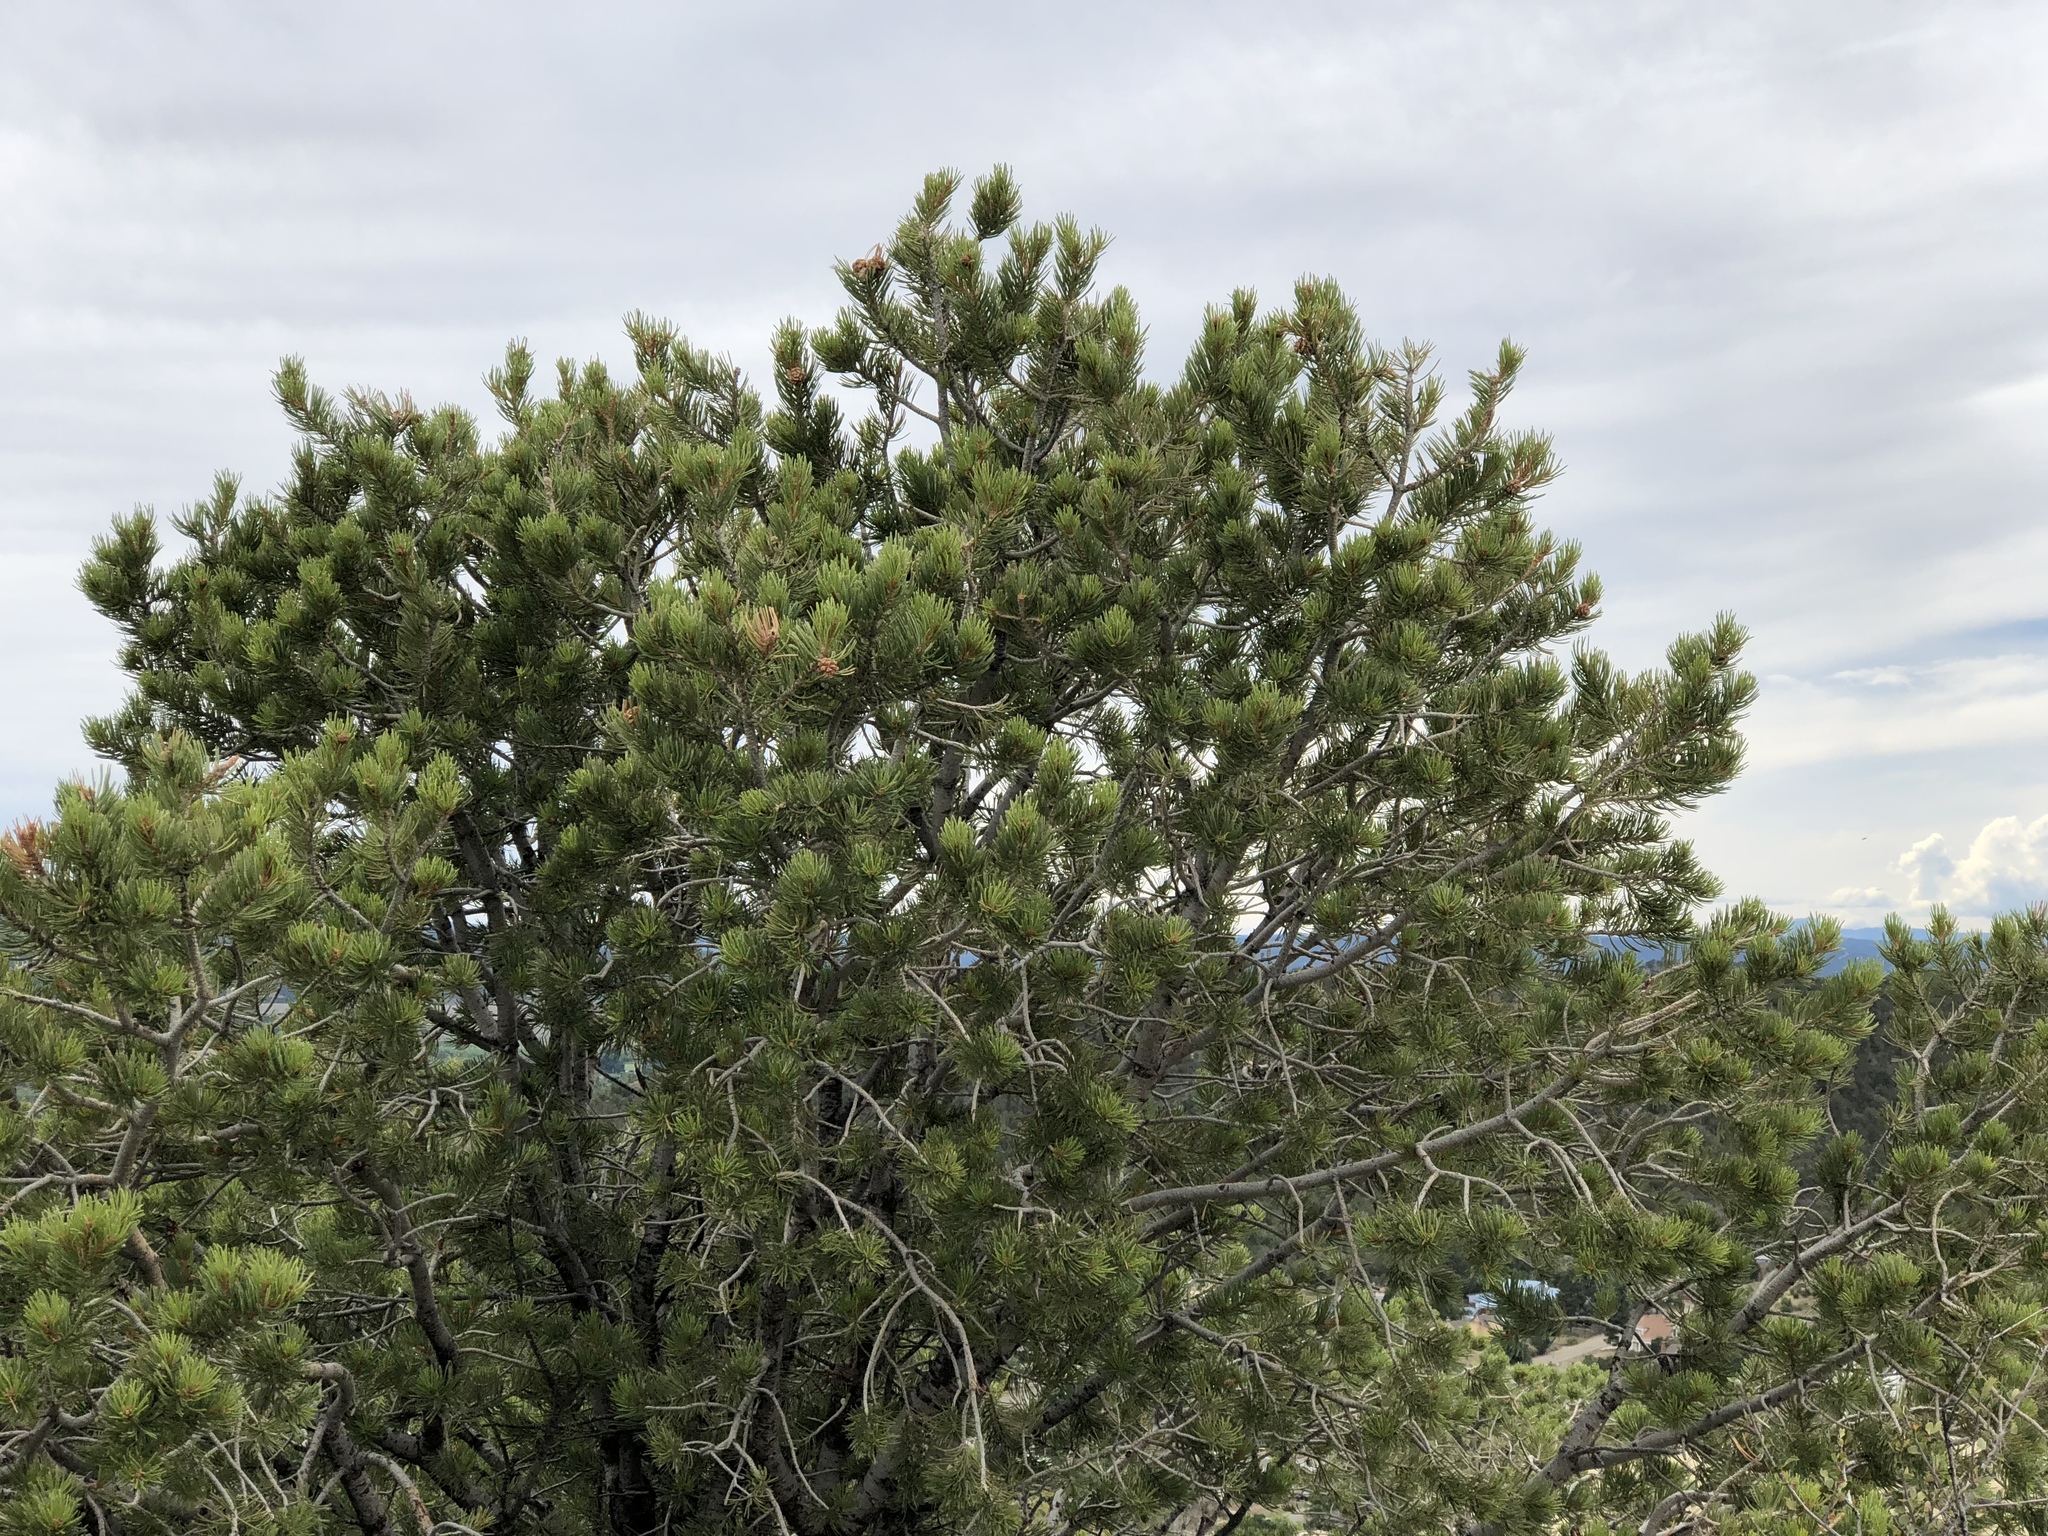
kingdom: Plantae
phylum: Tracheophyta
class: Pinopsida
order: Pinales
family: Pinaceae
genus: Pinus
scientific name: Pinus edulis
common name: Colorado pinyon
